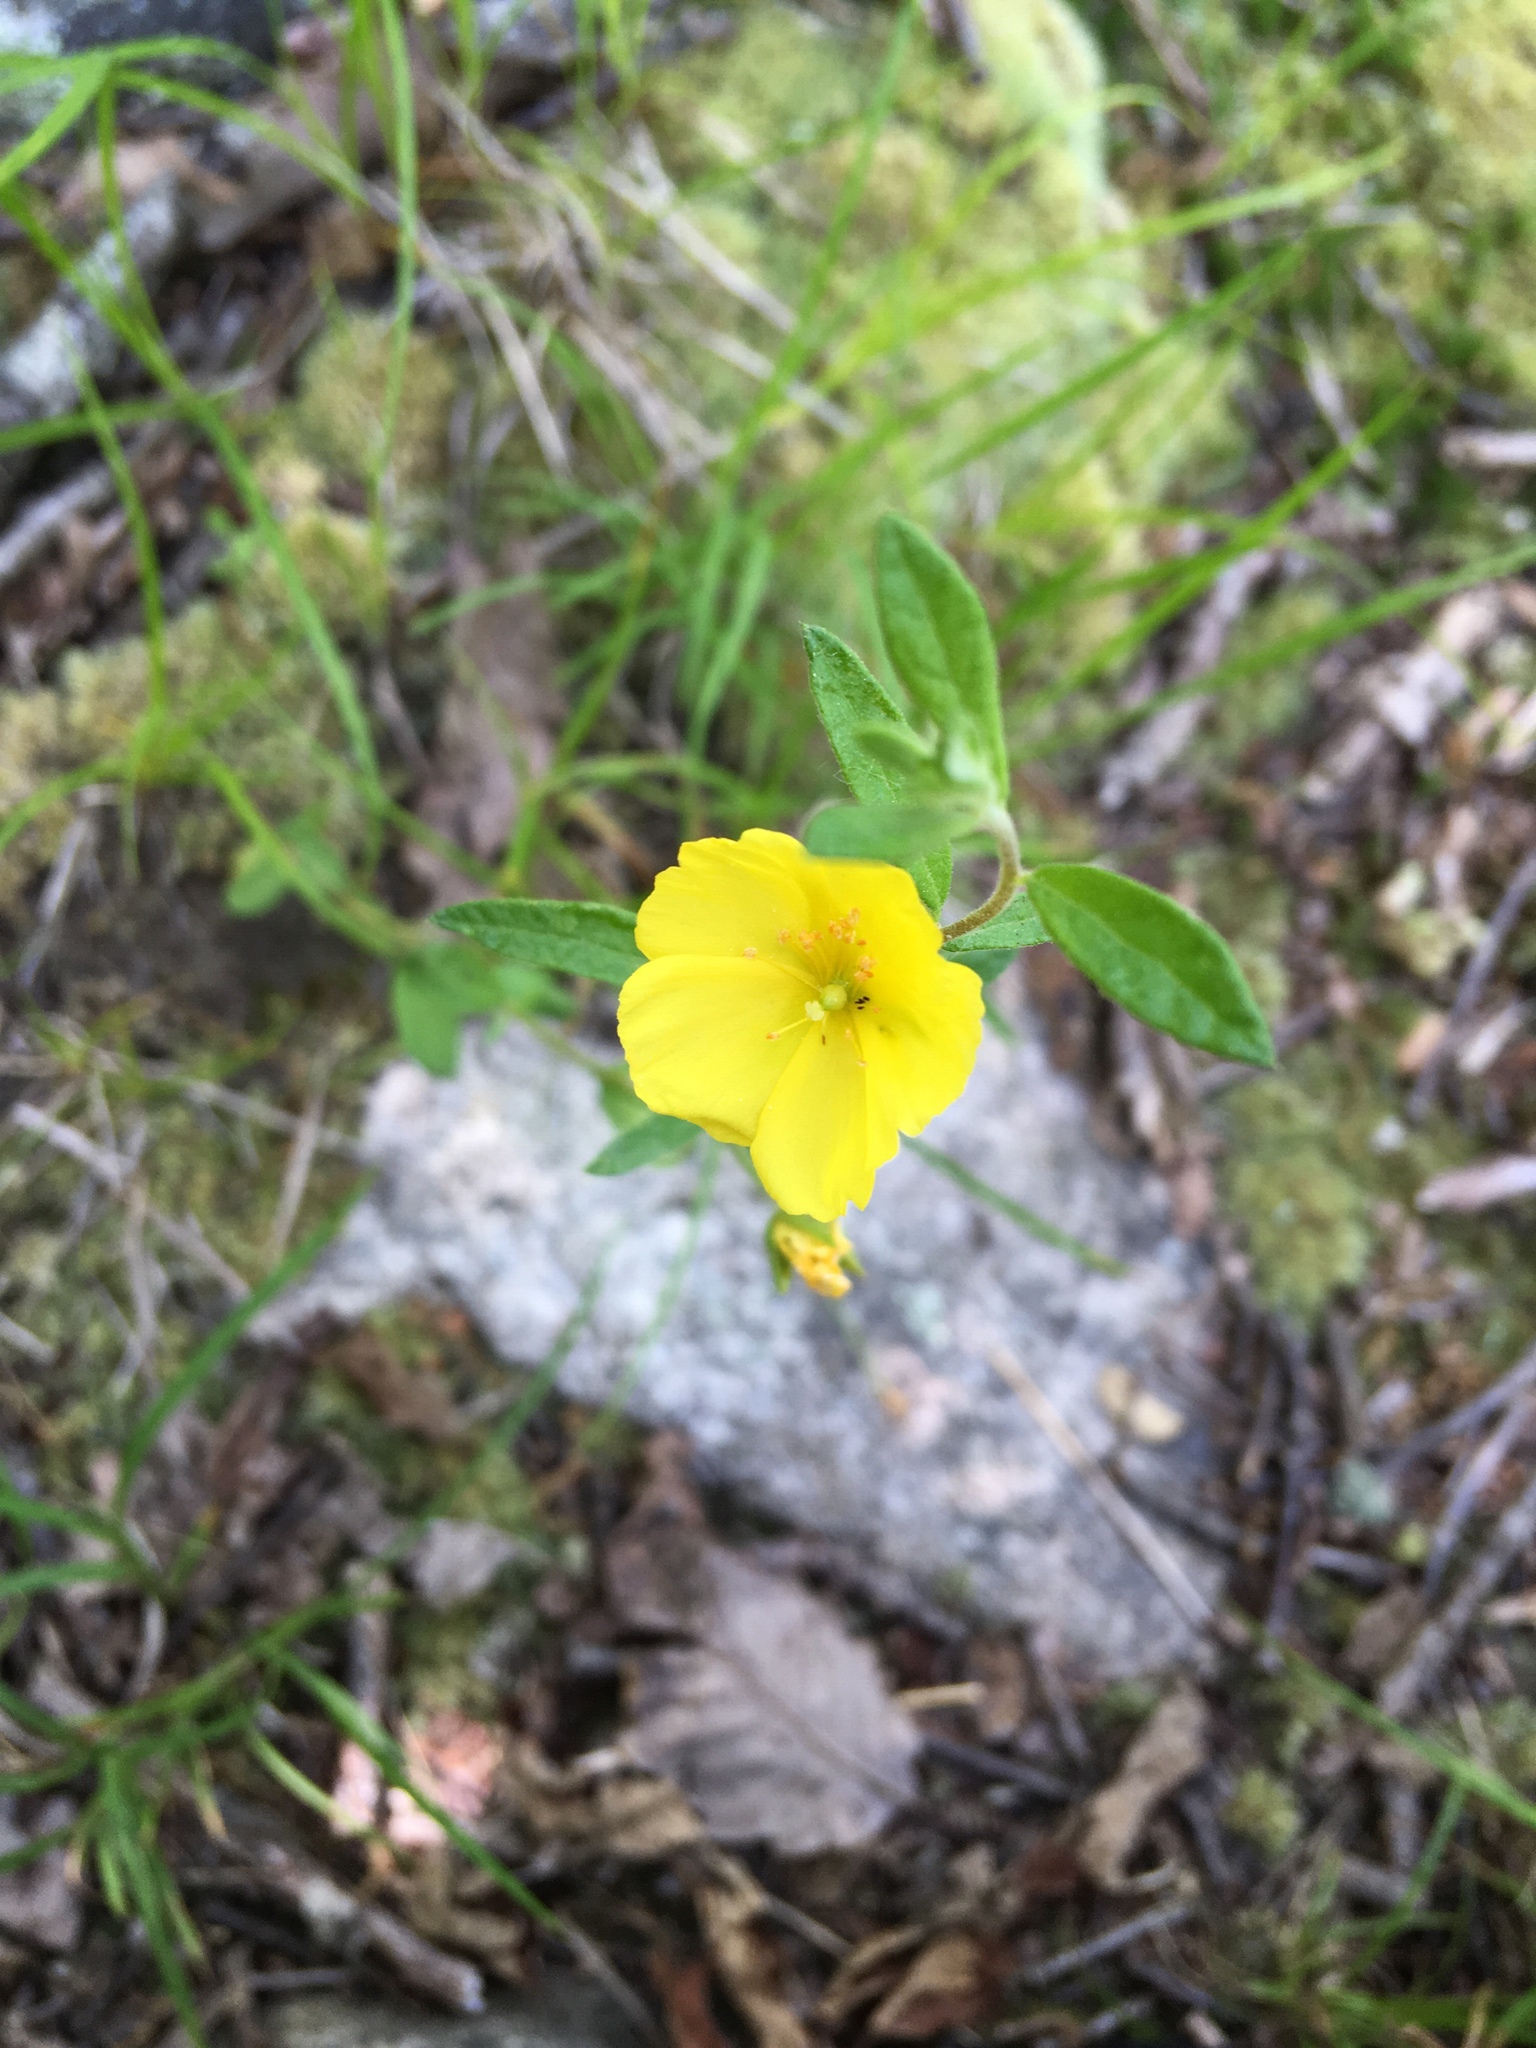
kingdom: Plantae
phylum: Tracheophyta
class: Magnoliopsida
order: Malvales
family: Cistaceae
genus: Crocanthemum
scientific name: Crocanthemum canadense
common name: Canada frostweed
